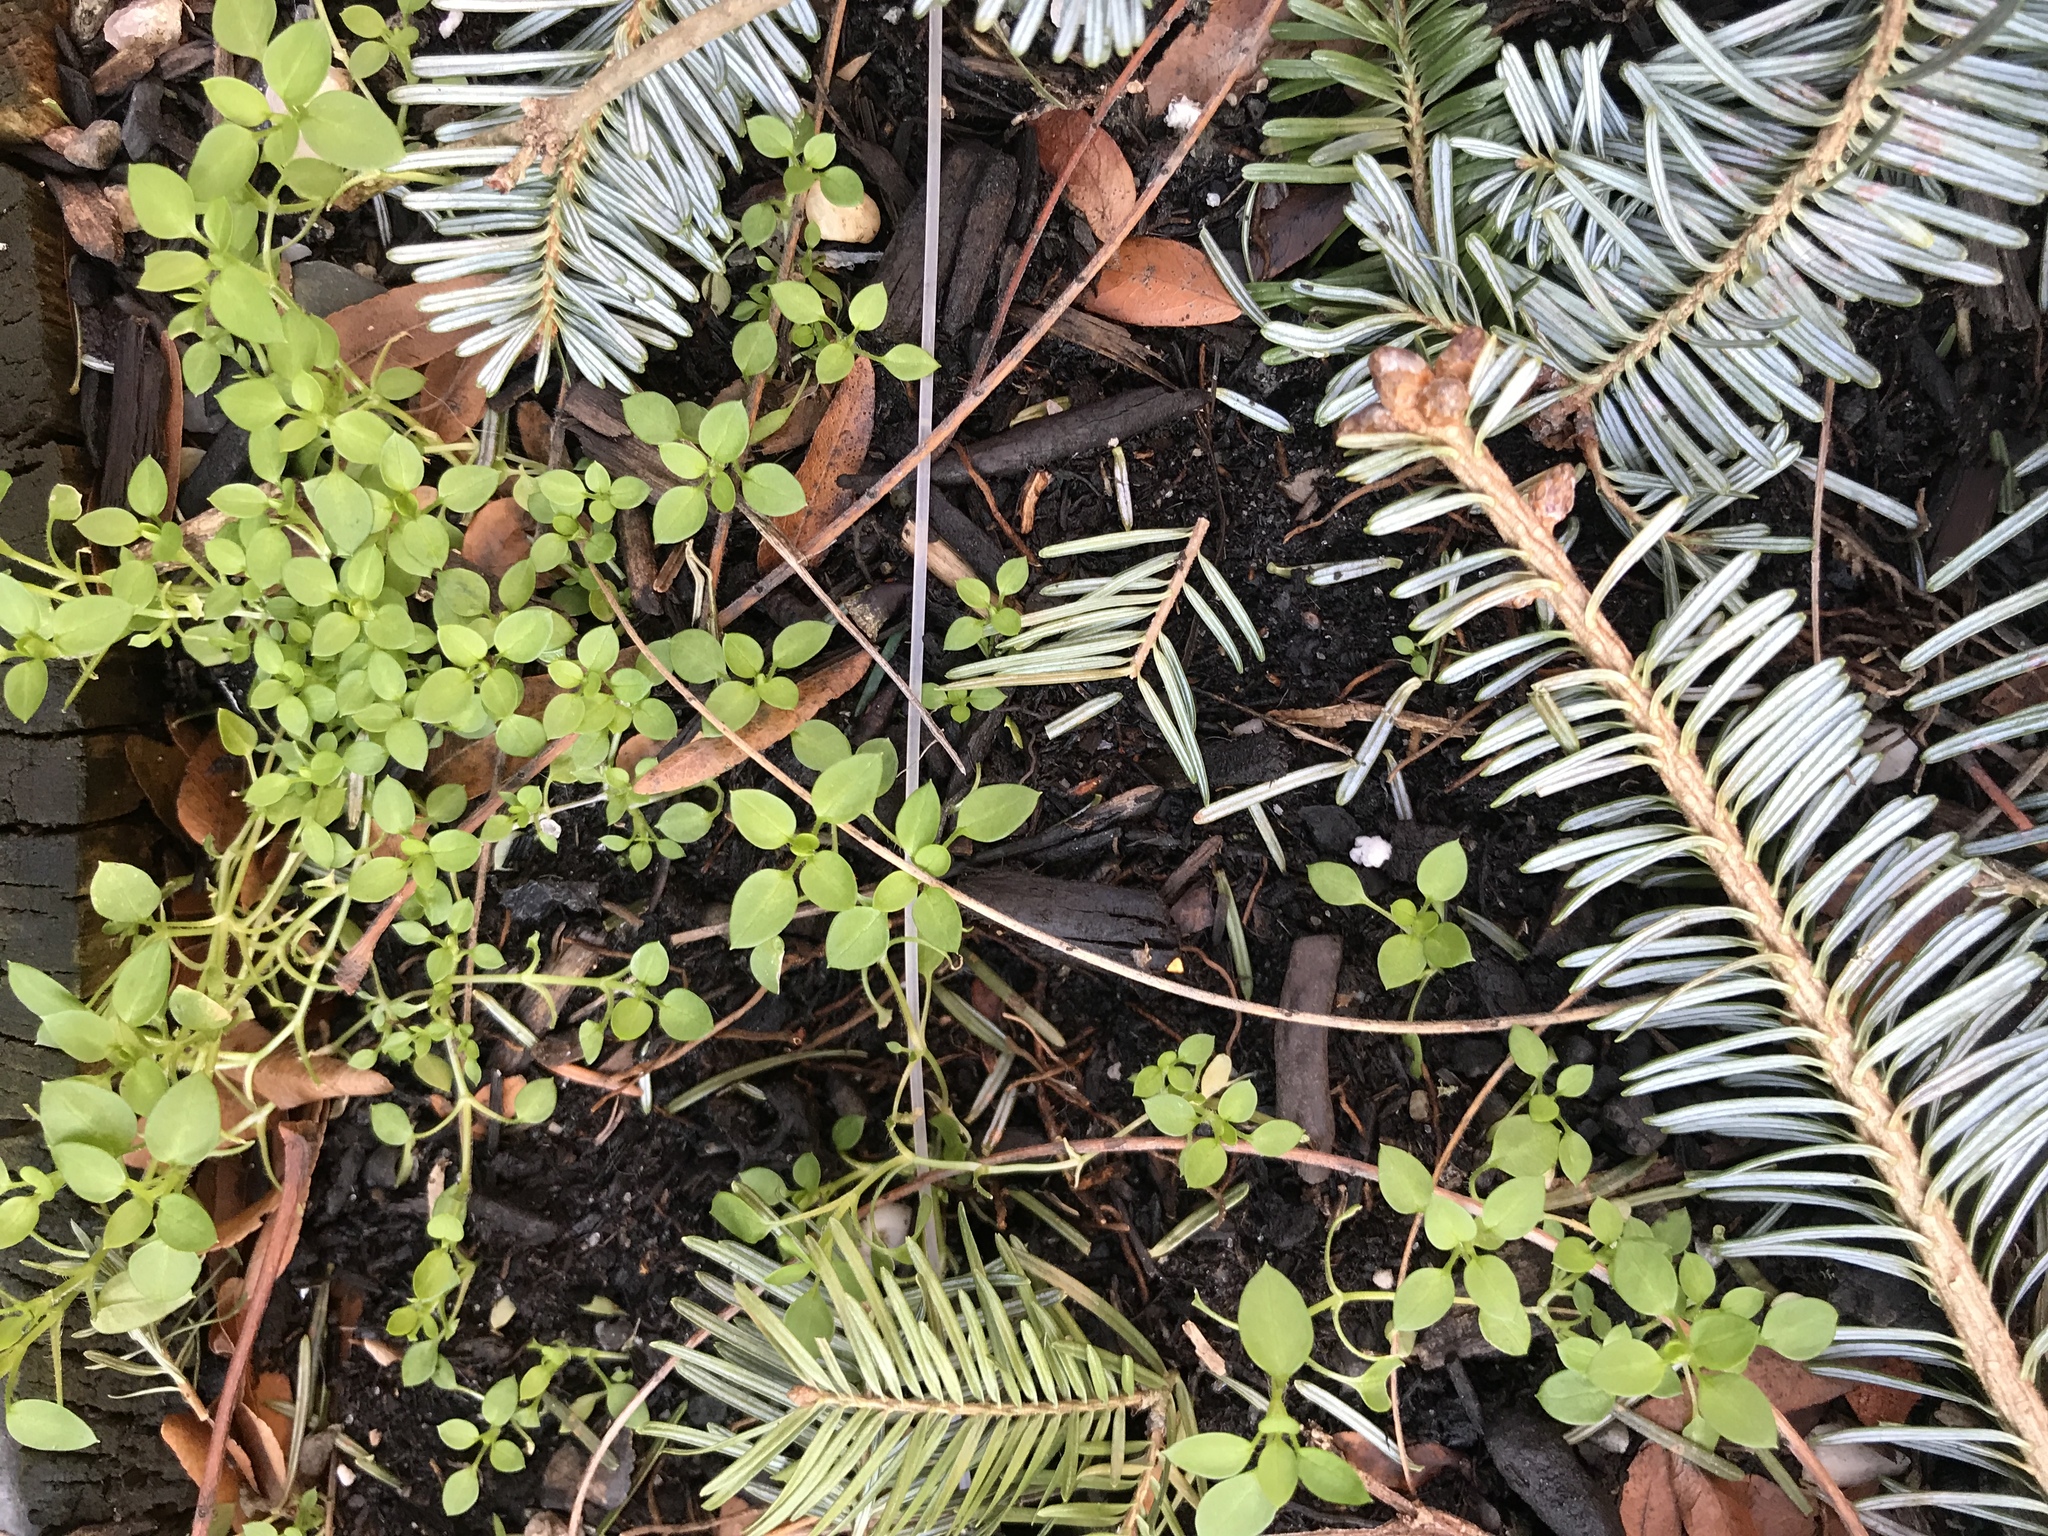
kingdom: Plantae
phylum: Tracheophyta
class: Magnoliopsida
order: Caryophyllales
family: Caryophyllaceae
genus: Stellaria
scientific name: Stellaria media
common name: Common chickweed
